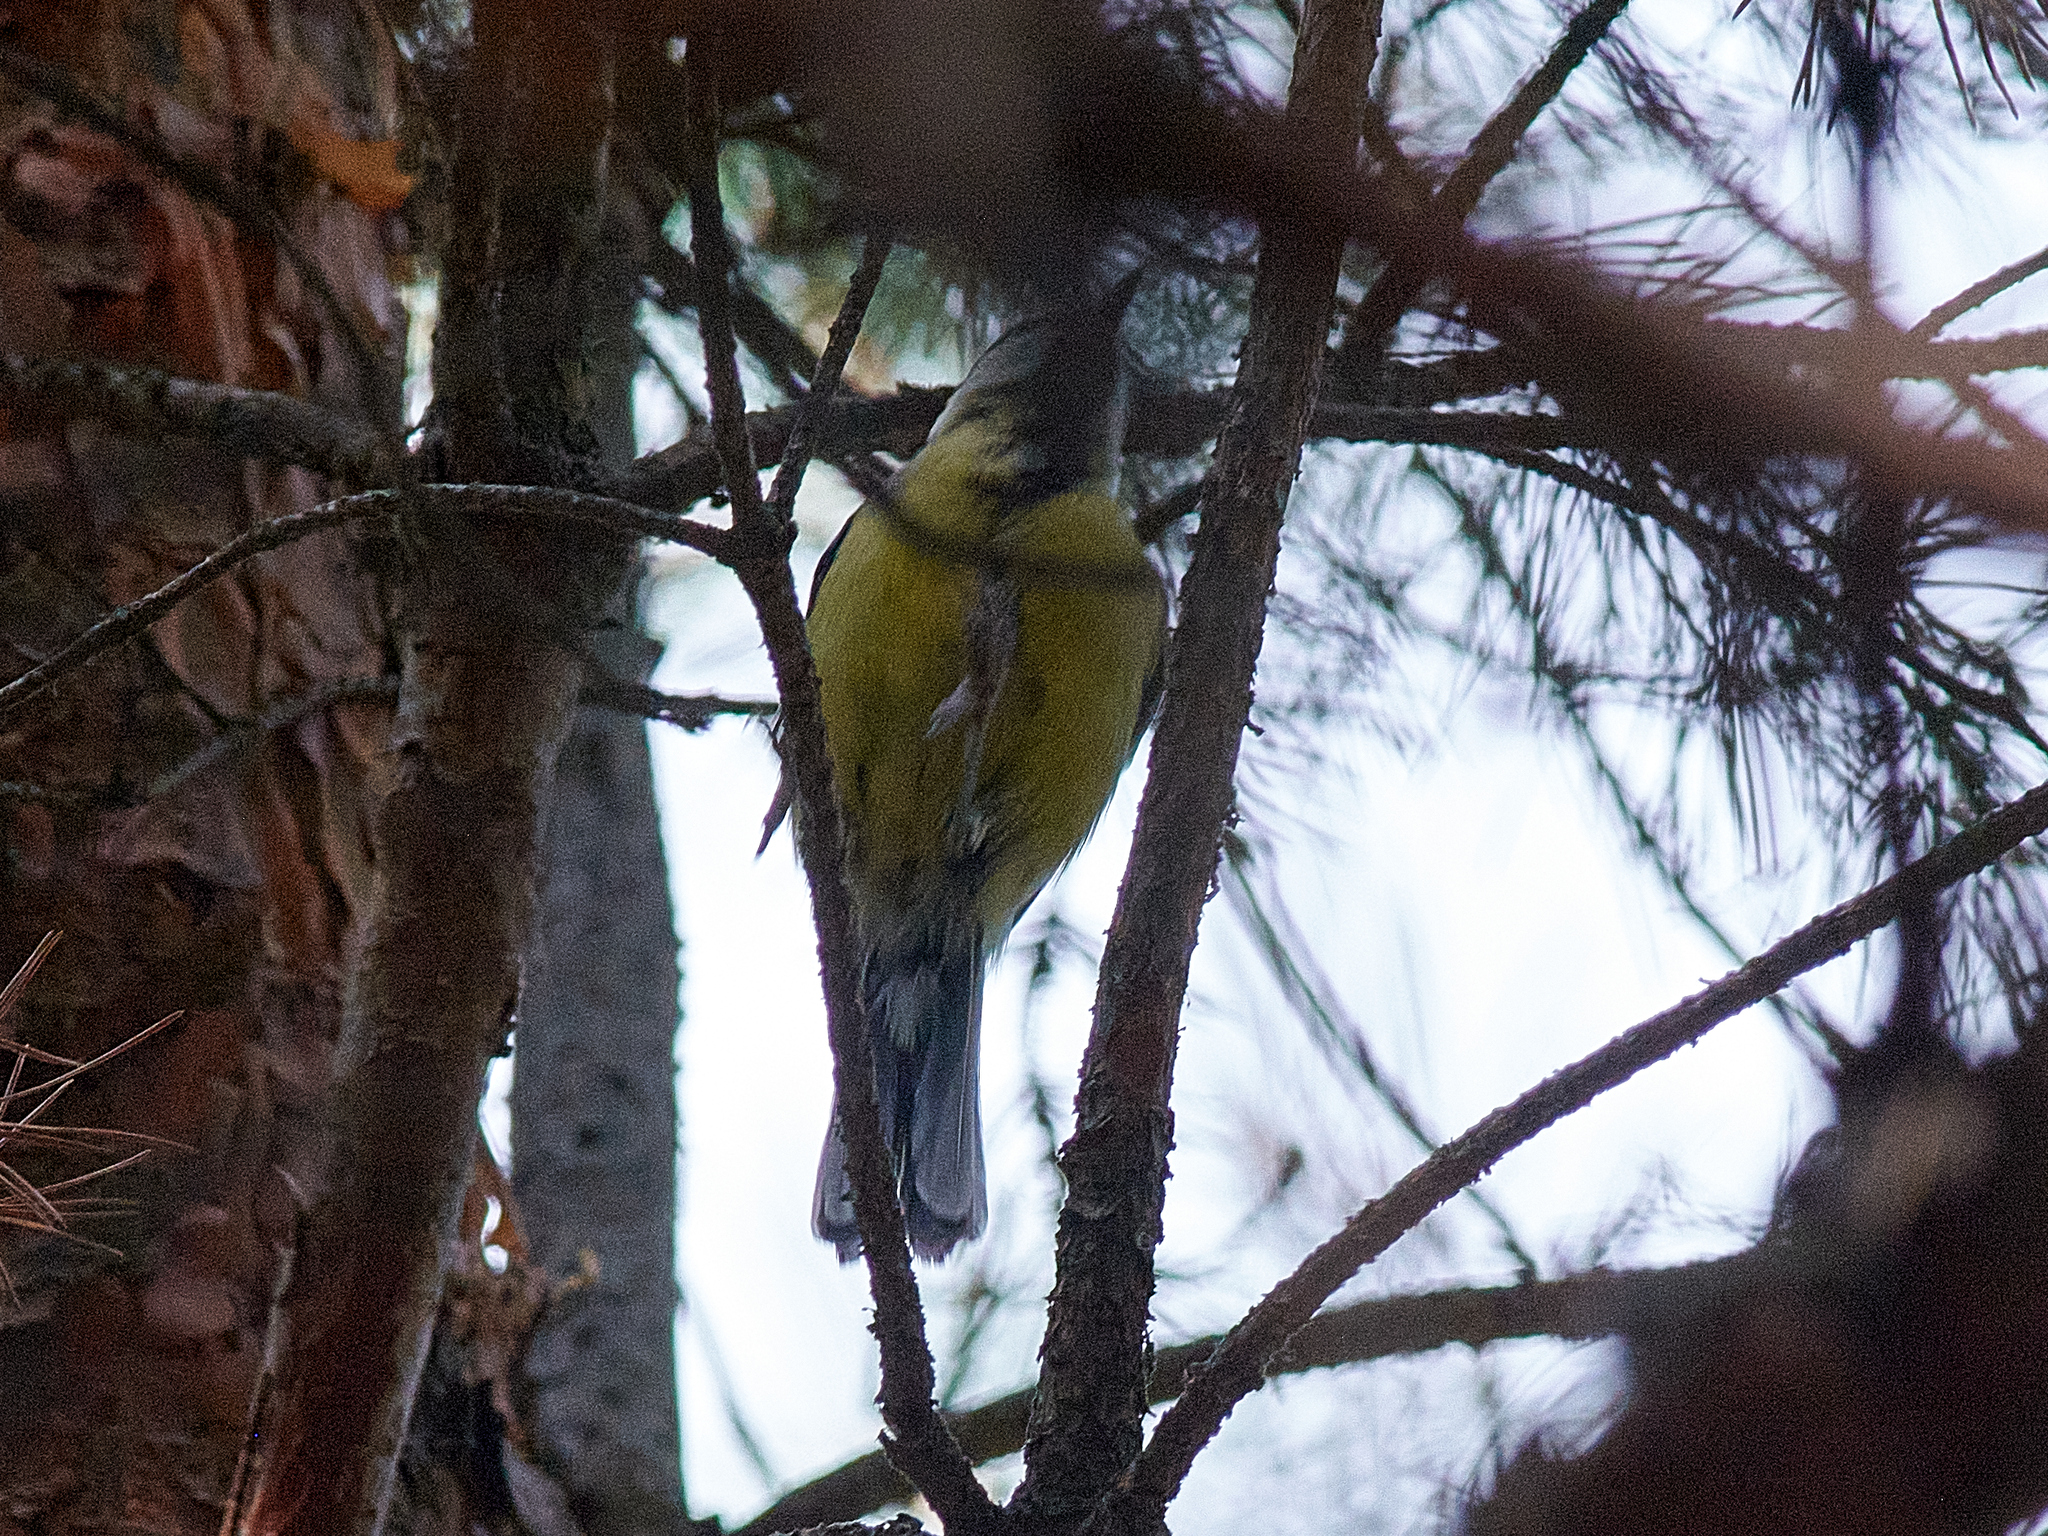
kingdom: Animalia
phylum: Chordata
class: Aves
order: Passeriformes
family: Paridae
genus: Parus
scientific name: Parus major
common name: Great tit
